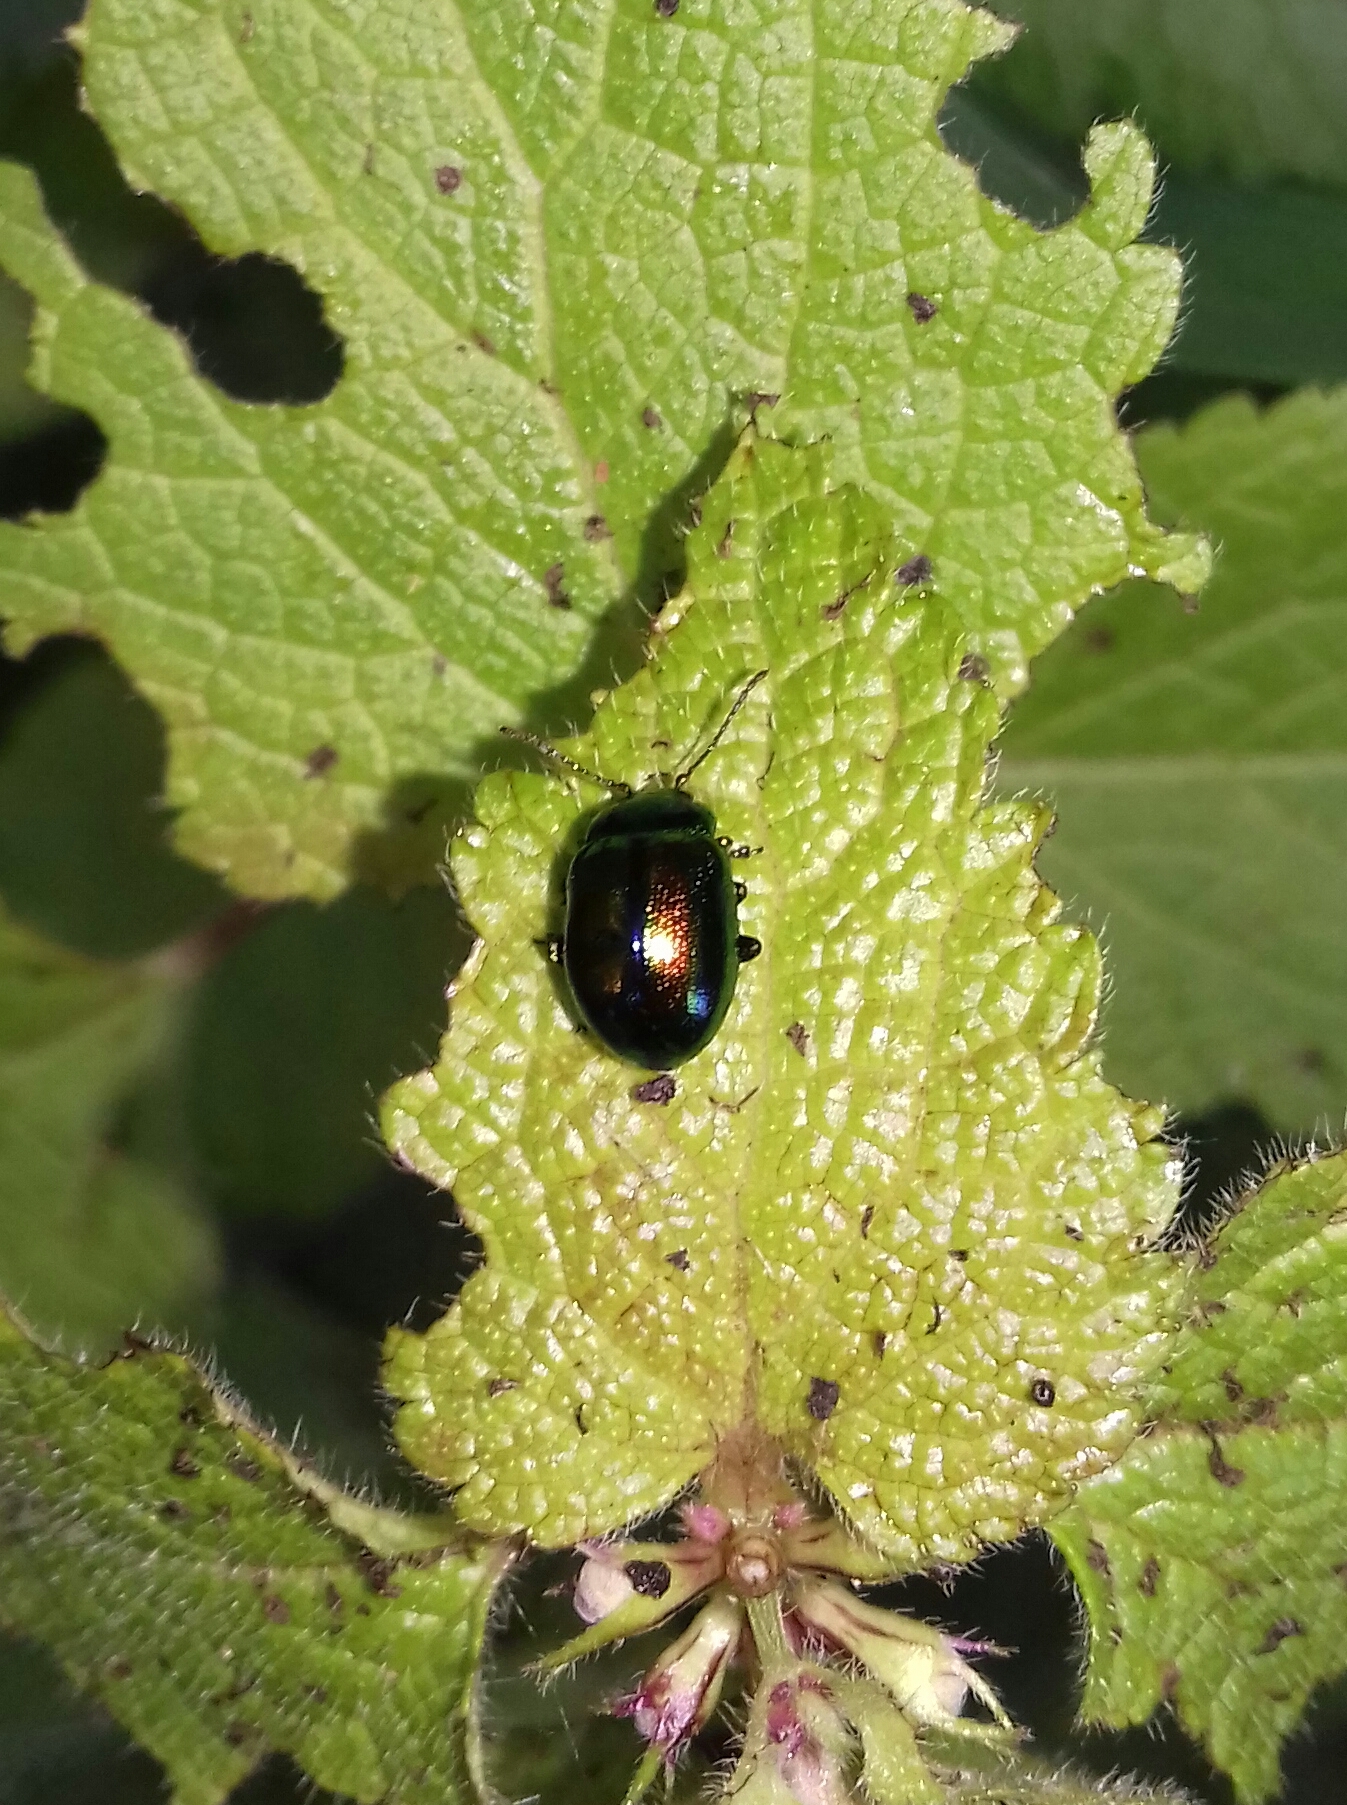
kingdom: Animalia
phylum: Arthropoda
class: Insecta
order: Coleoptera
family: Chrysomelidae
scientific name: Chrysomelidae
